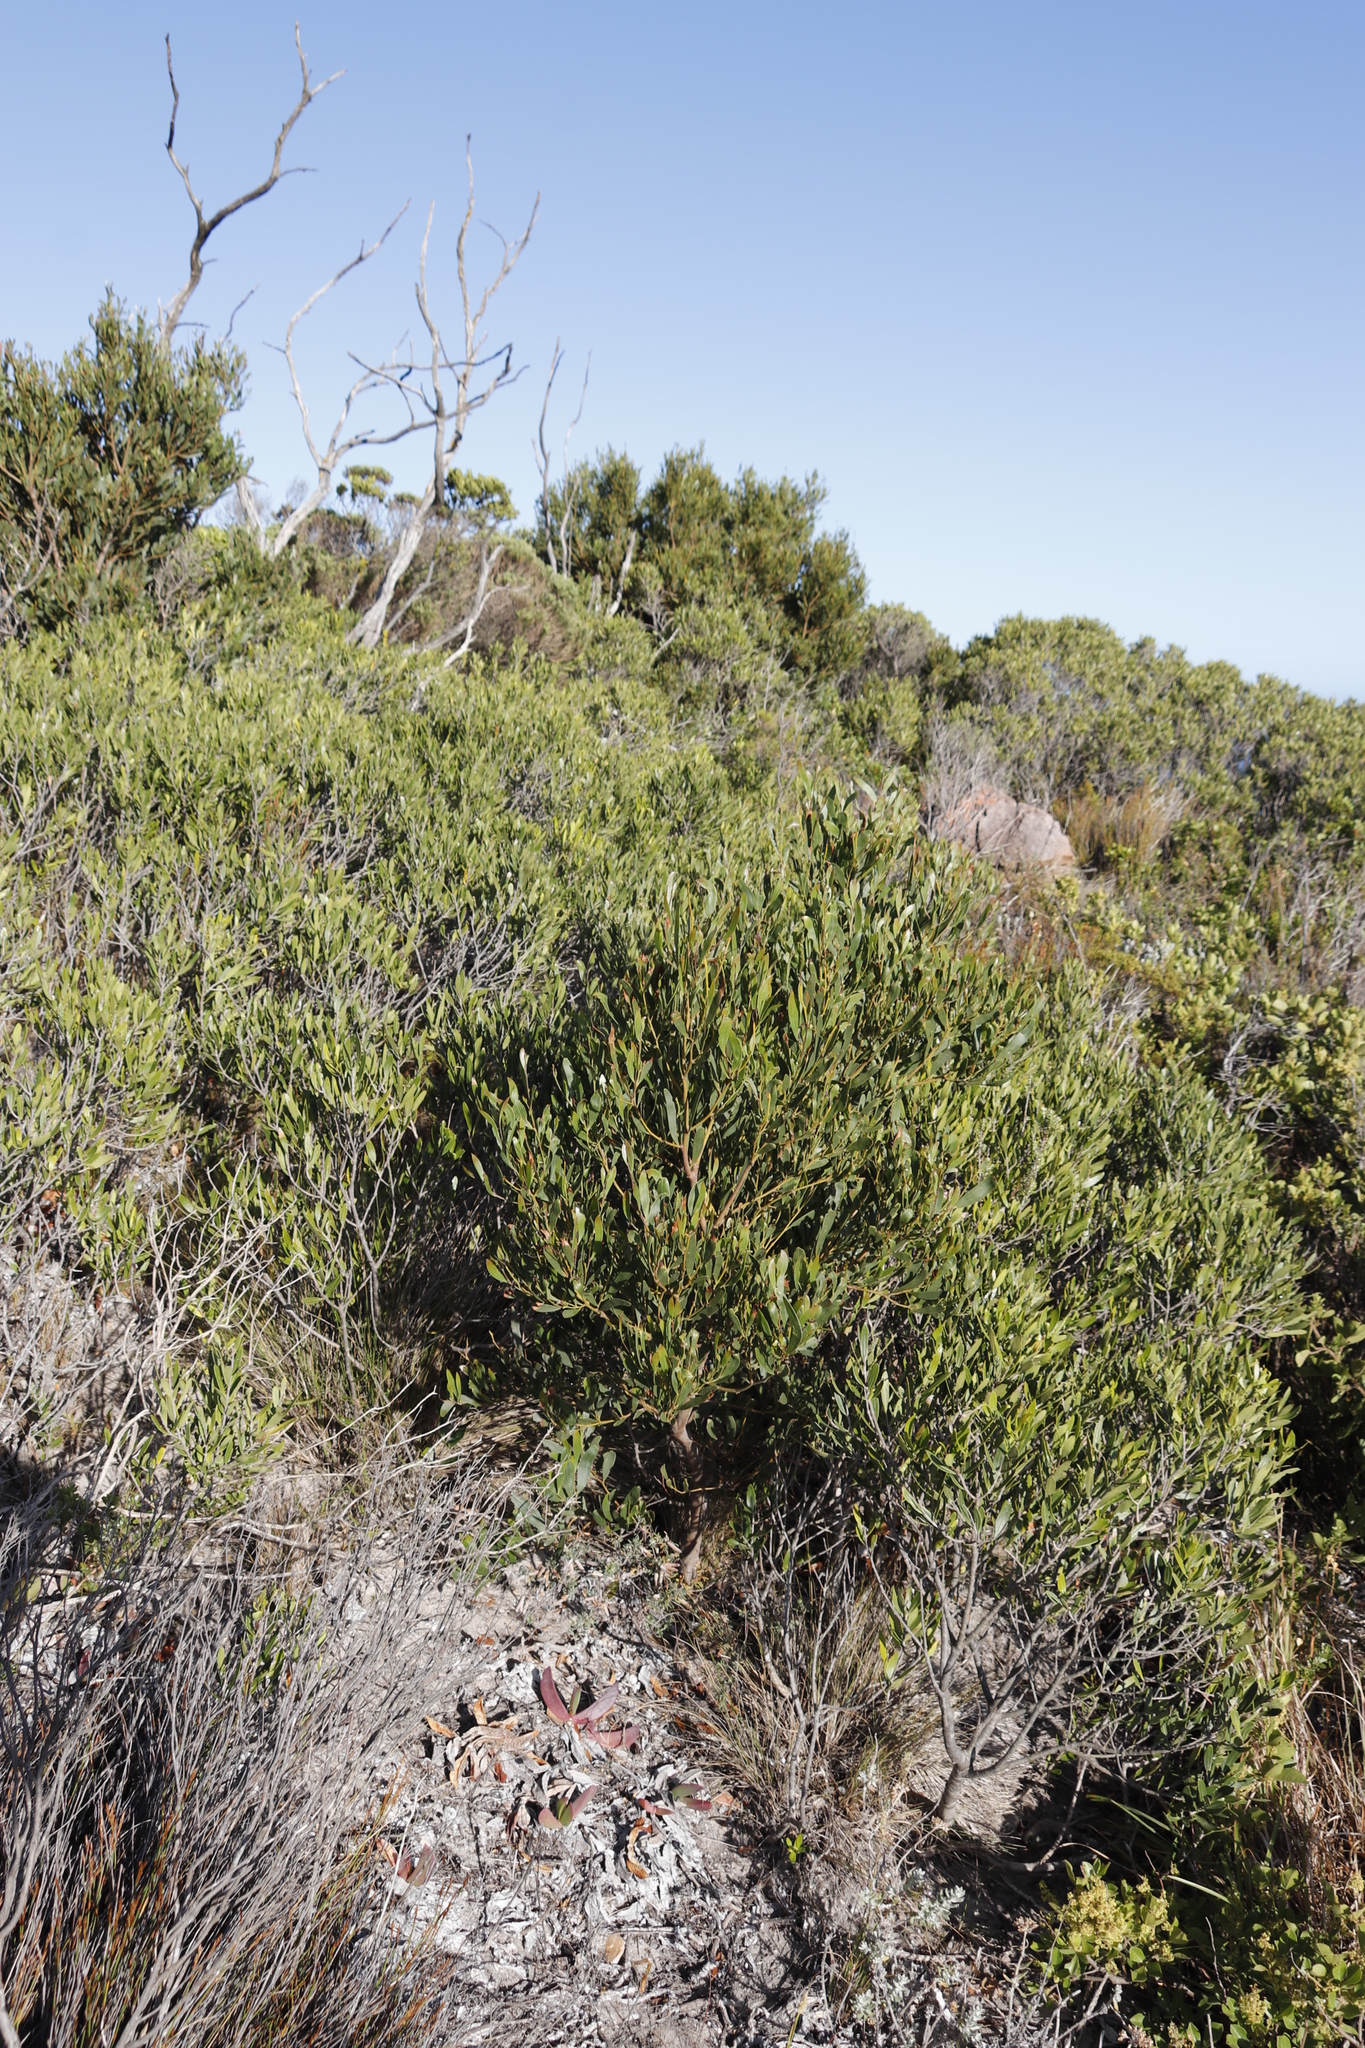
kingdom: Plantae
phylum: Tracheophyta
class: Magnoliopsida
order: Fabales
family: Fabaceae
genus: Acacia
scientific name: Acacia cyclops
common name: Coastal wattle
